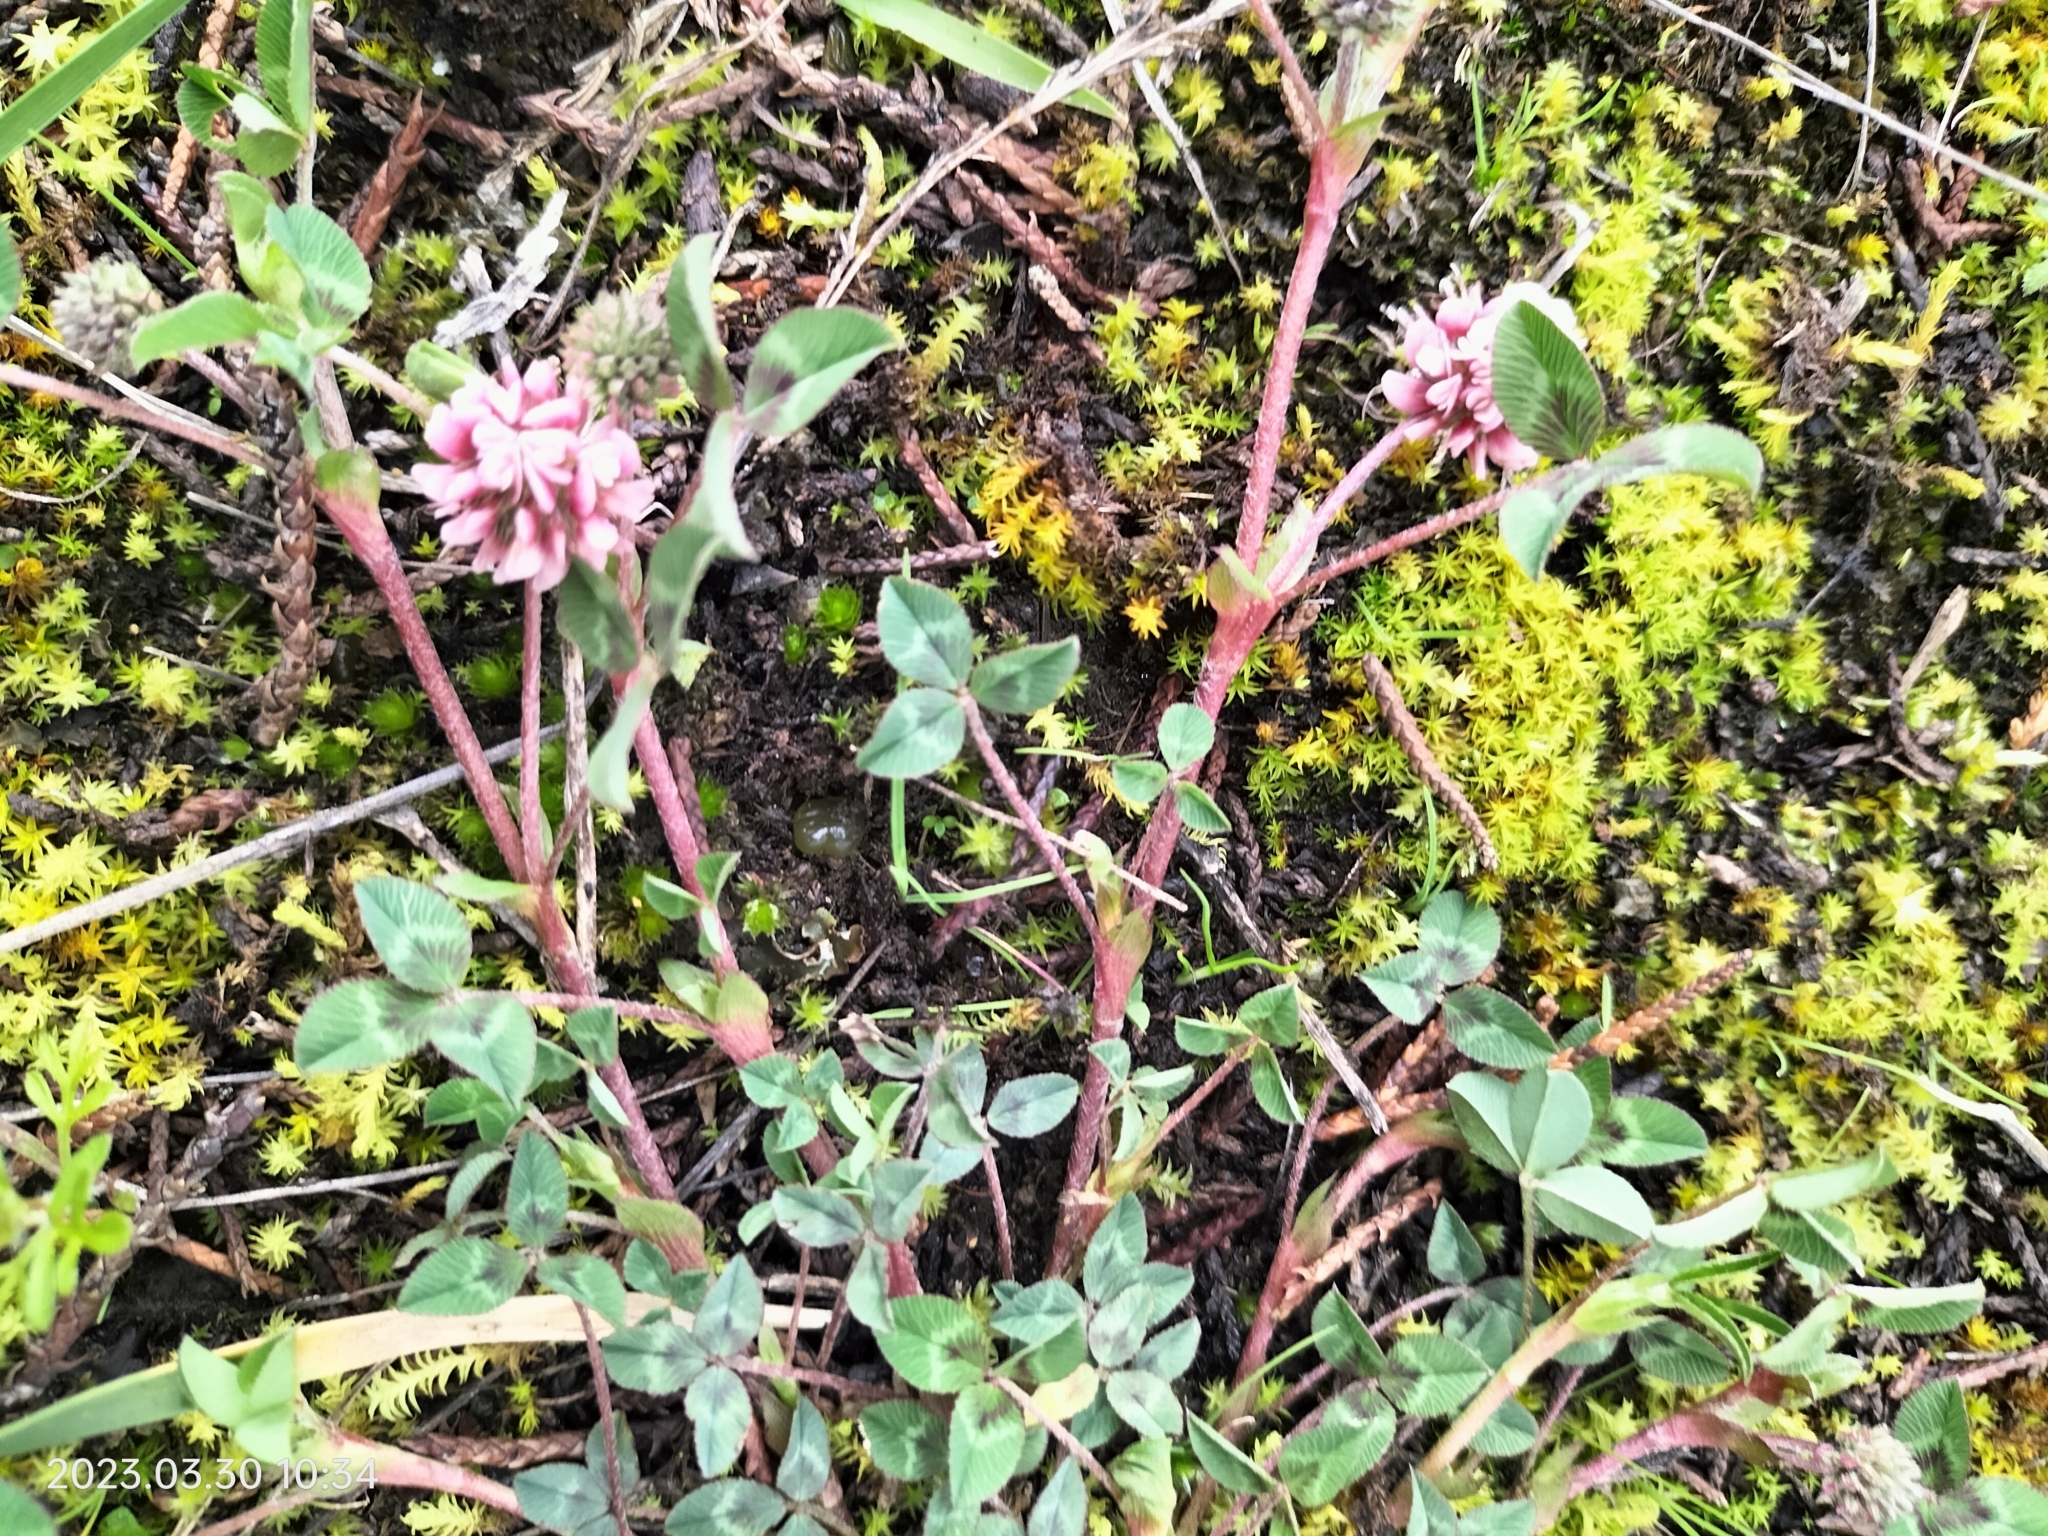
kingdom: Plantae
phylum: Tracheophyta
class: Magnoliopsida
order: Fabales
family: Fabaceae
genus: Trifolium
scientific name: Trifolium amabile
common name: Aztec clover
